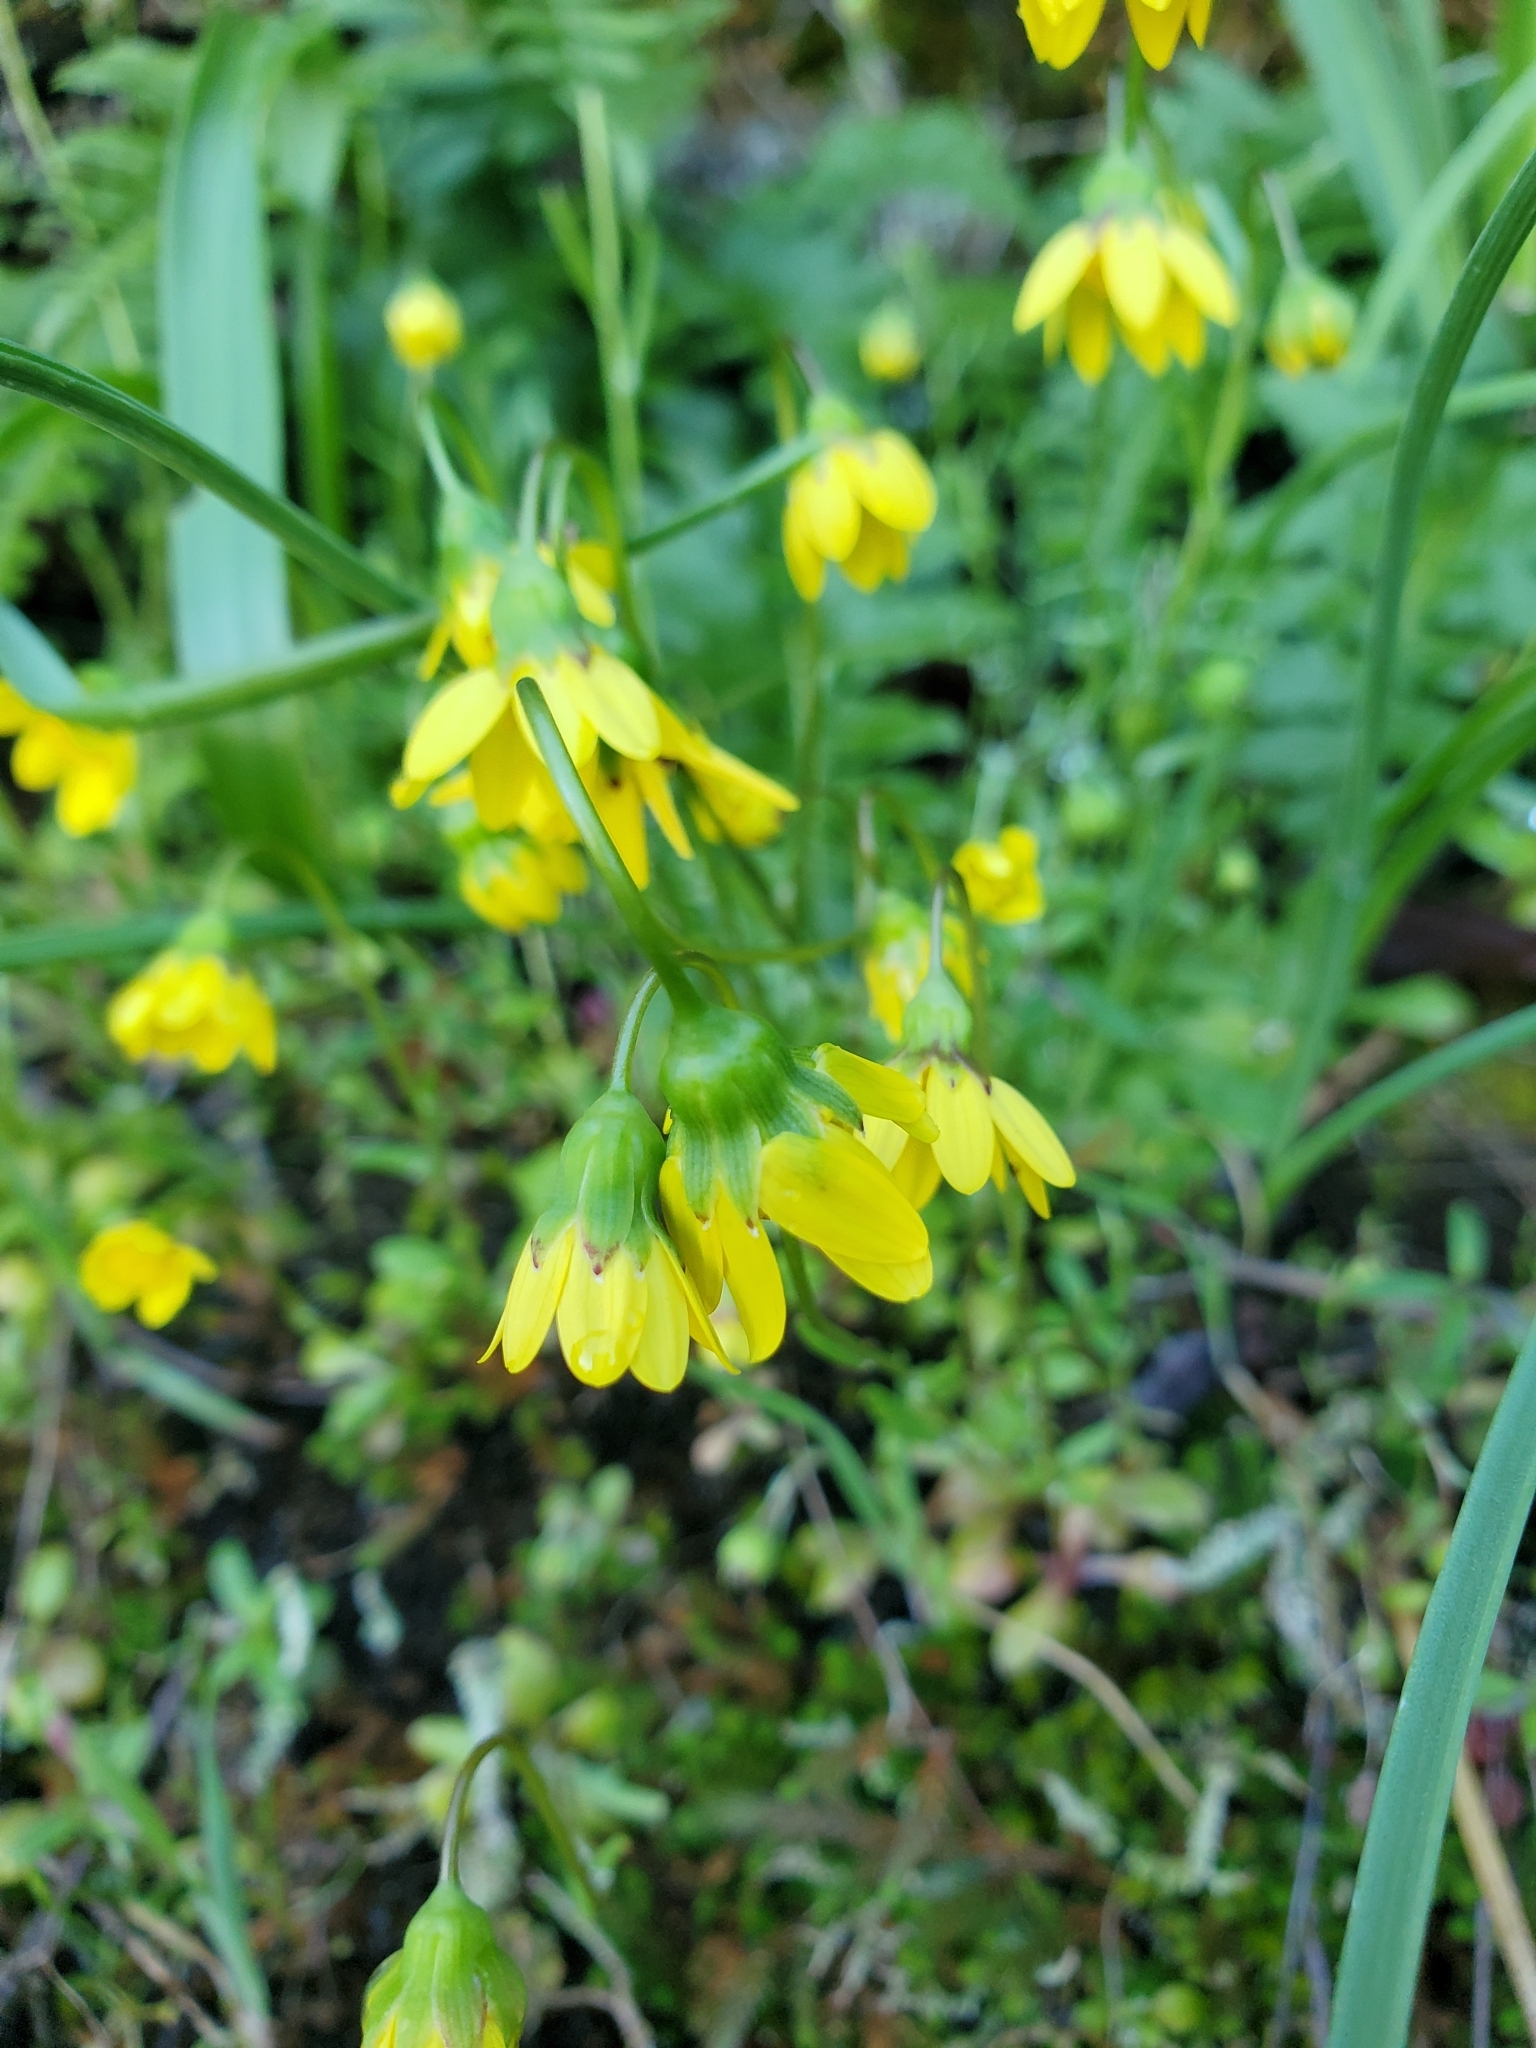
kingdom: Plantae
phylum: Tracheophyta
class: Magnoliopsida
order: Asterales
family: Asteraceae
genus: Crocidium
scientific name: Crocidium multicaule
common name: Common spring gold
